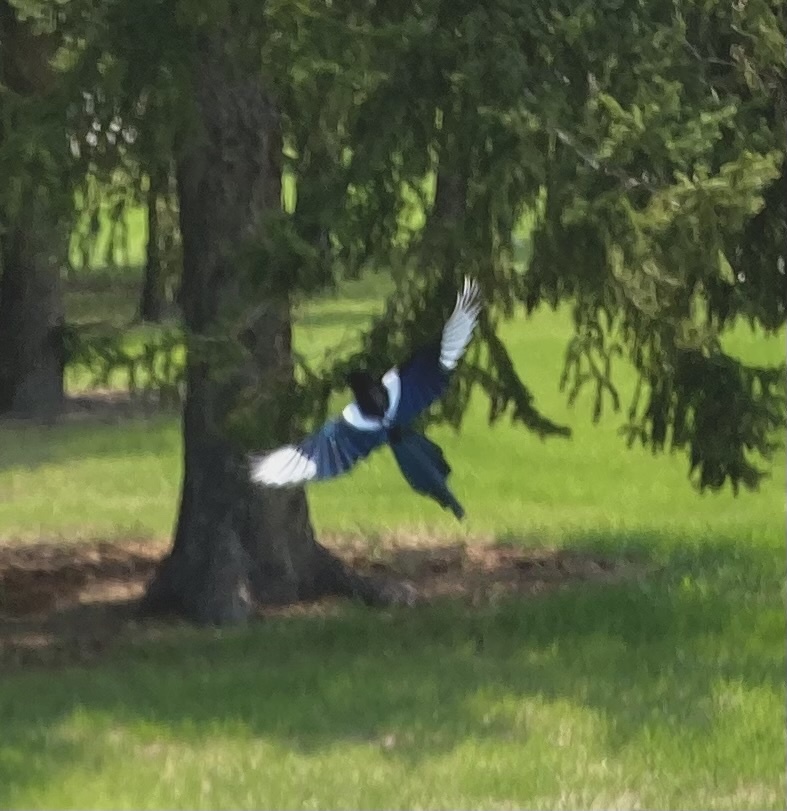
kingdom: Animalia
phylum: Chordata
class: Aves
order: Passeriformes
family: Corvidae
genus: Pica
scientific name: Pica hudsonia
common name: Black-billed magpie
